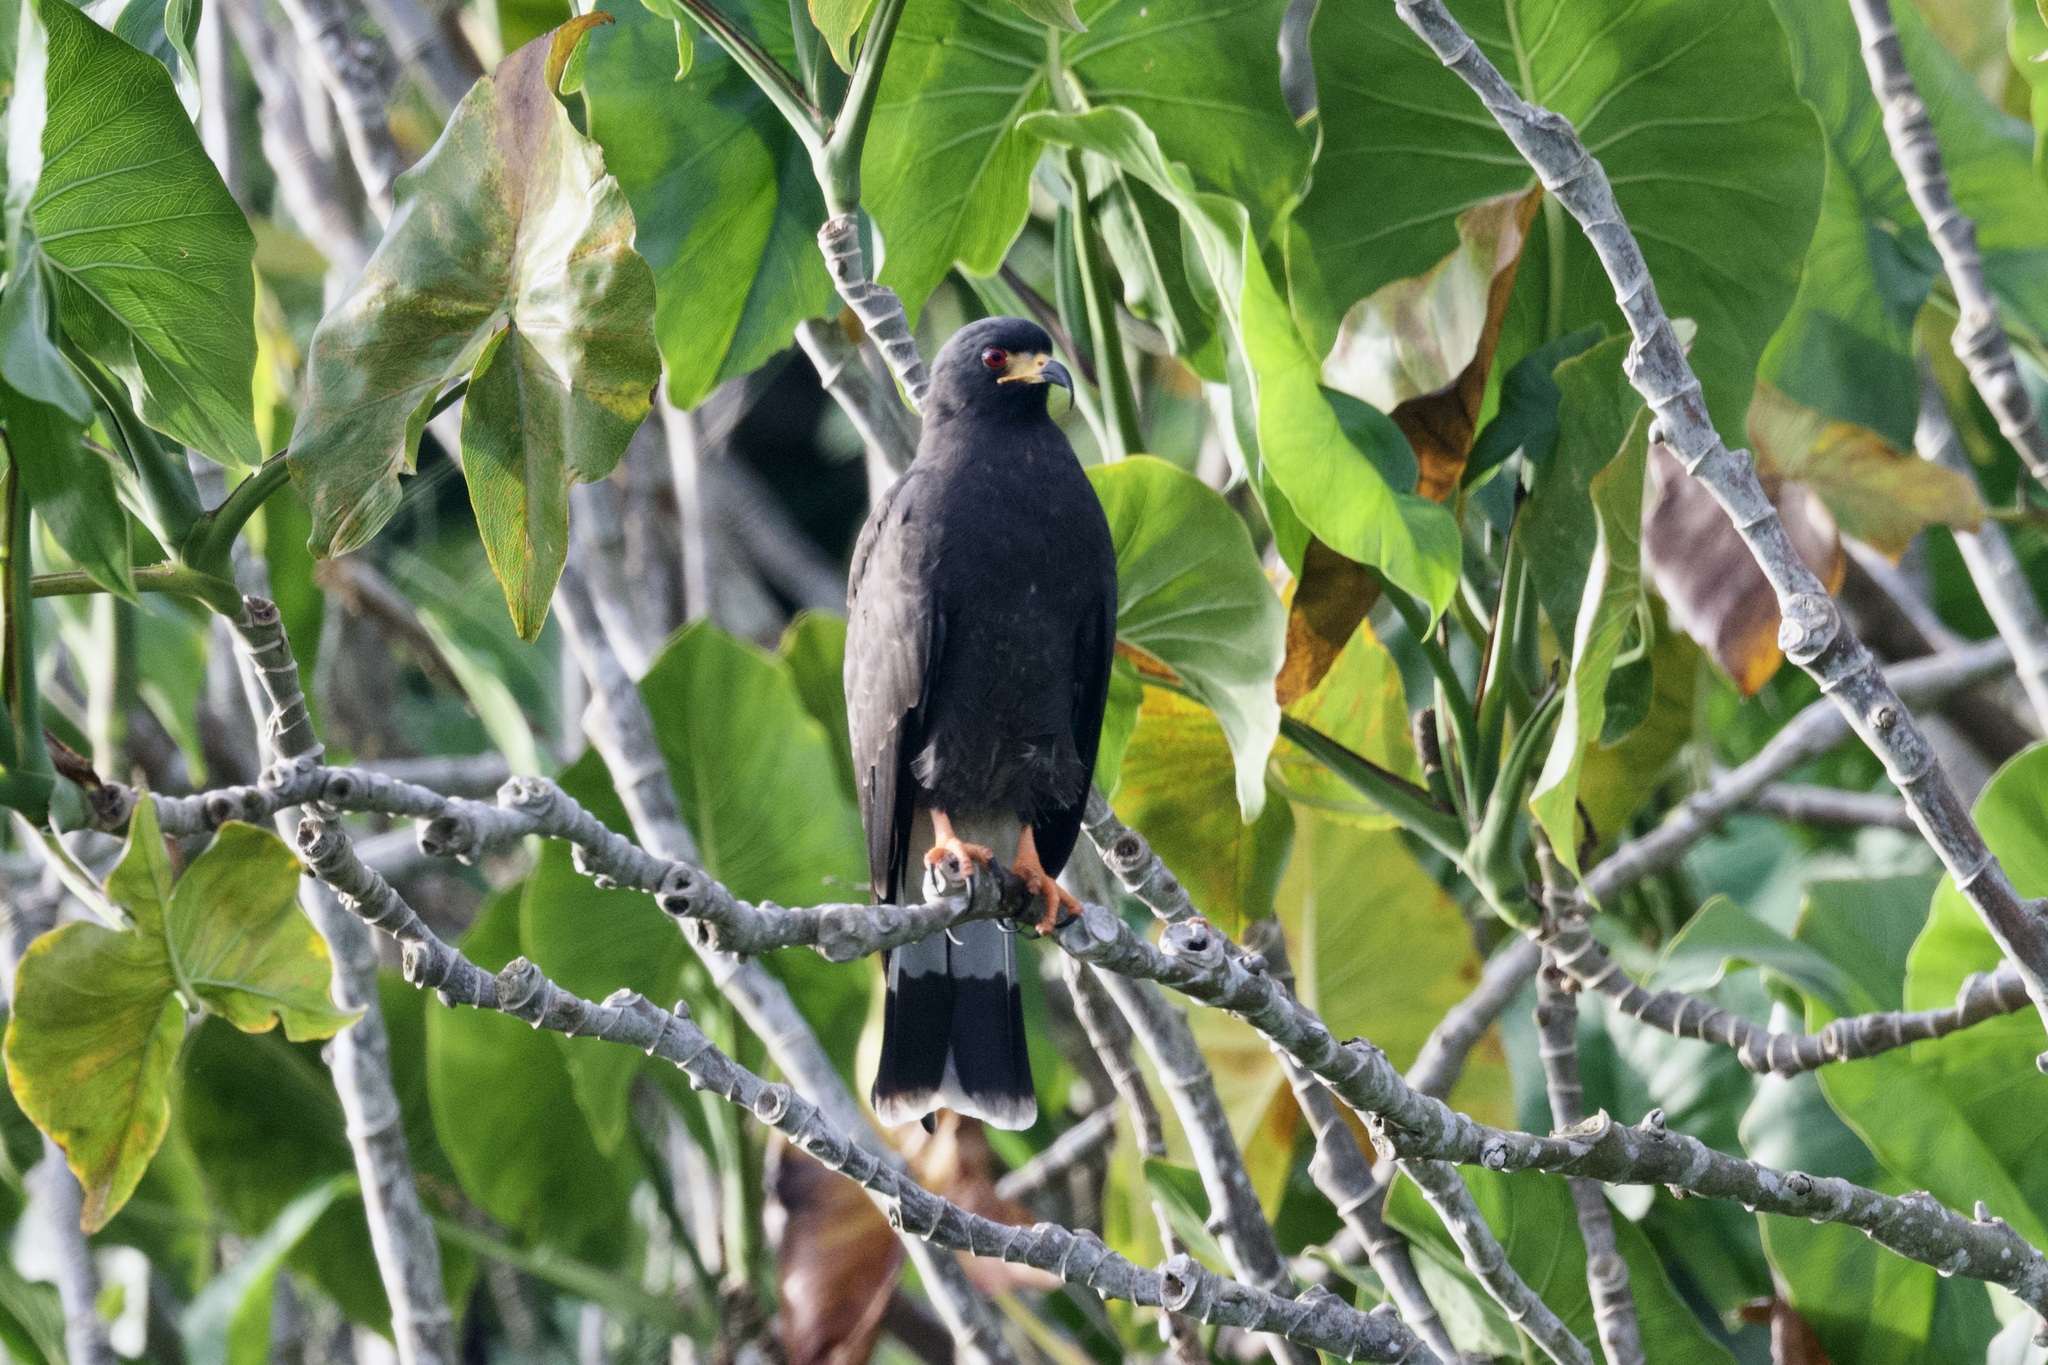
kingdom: Animalia
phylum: Chordata
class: Aves
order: Accipitriformes
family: Accipitridae
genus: Rostrhamus
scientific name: Rostrhamus sociabilis
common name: Snail kite
